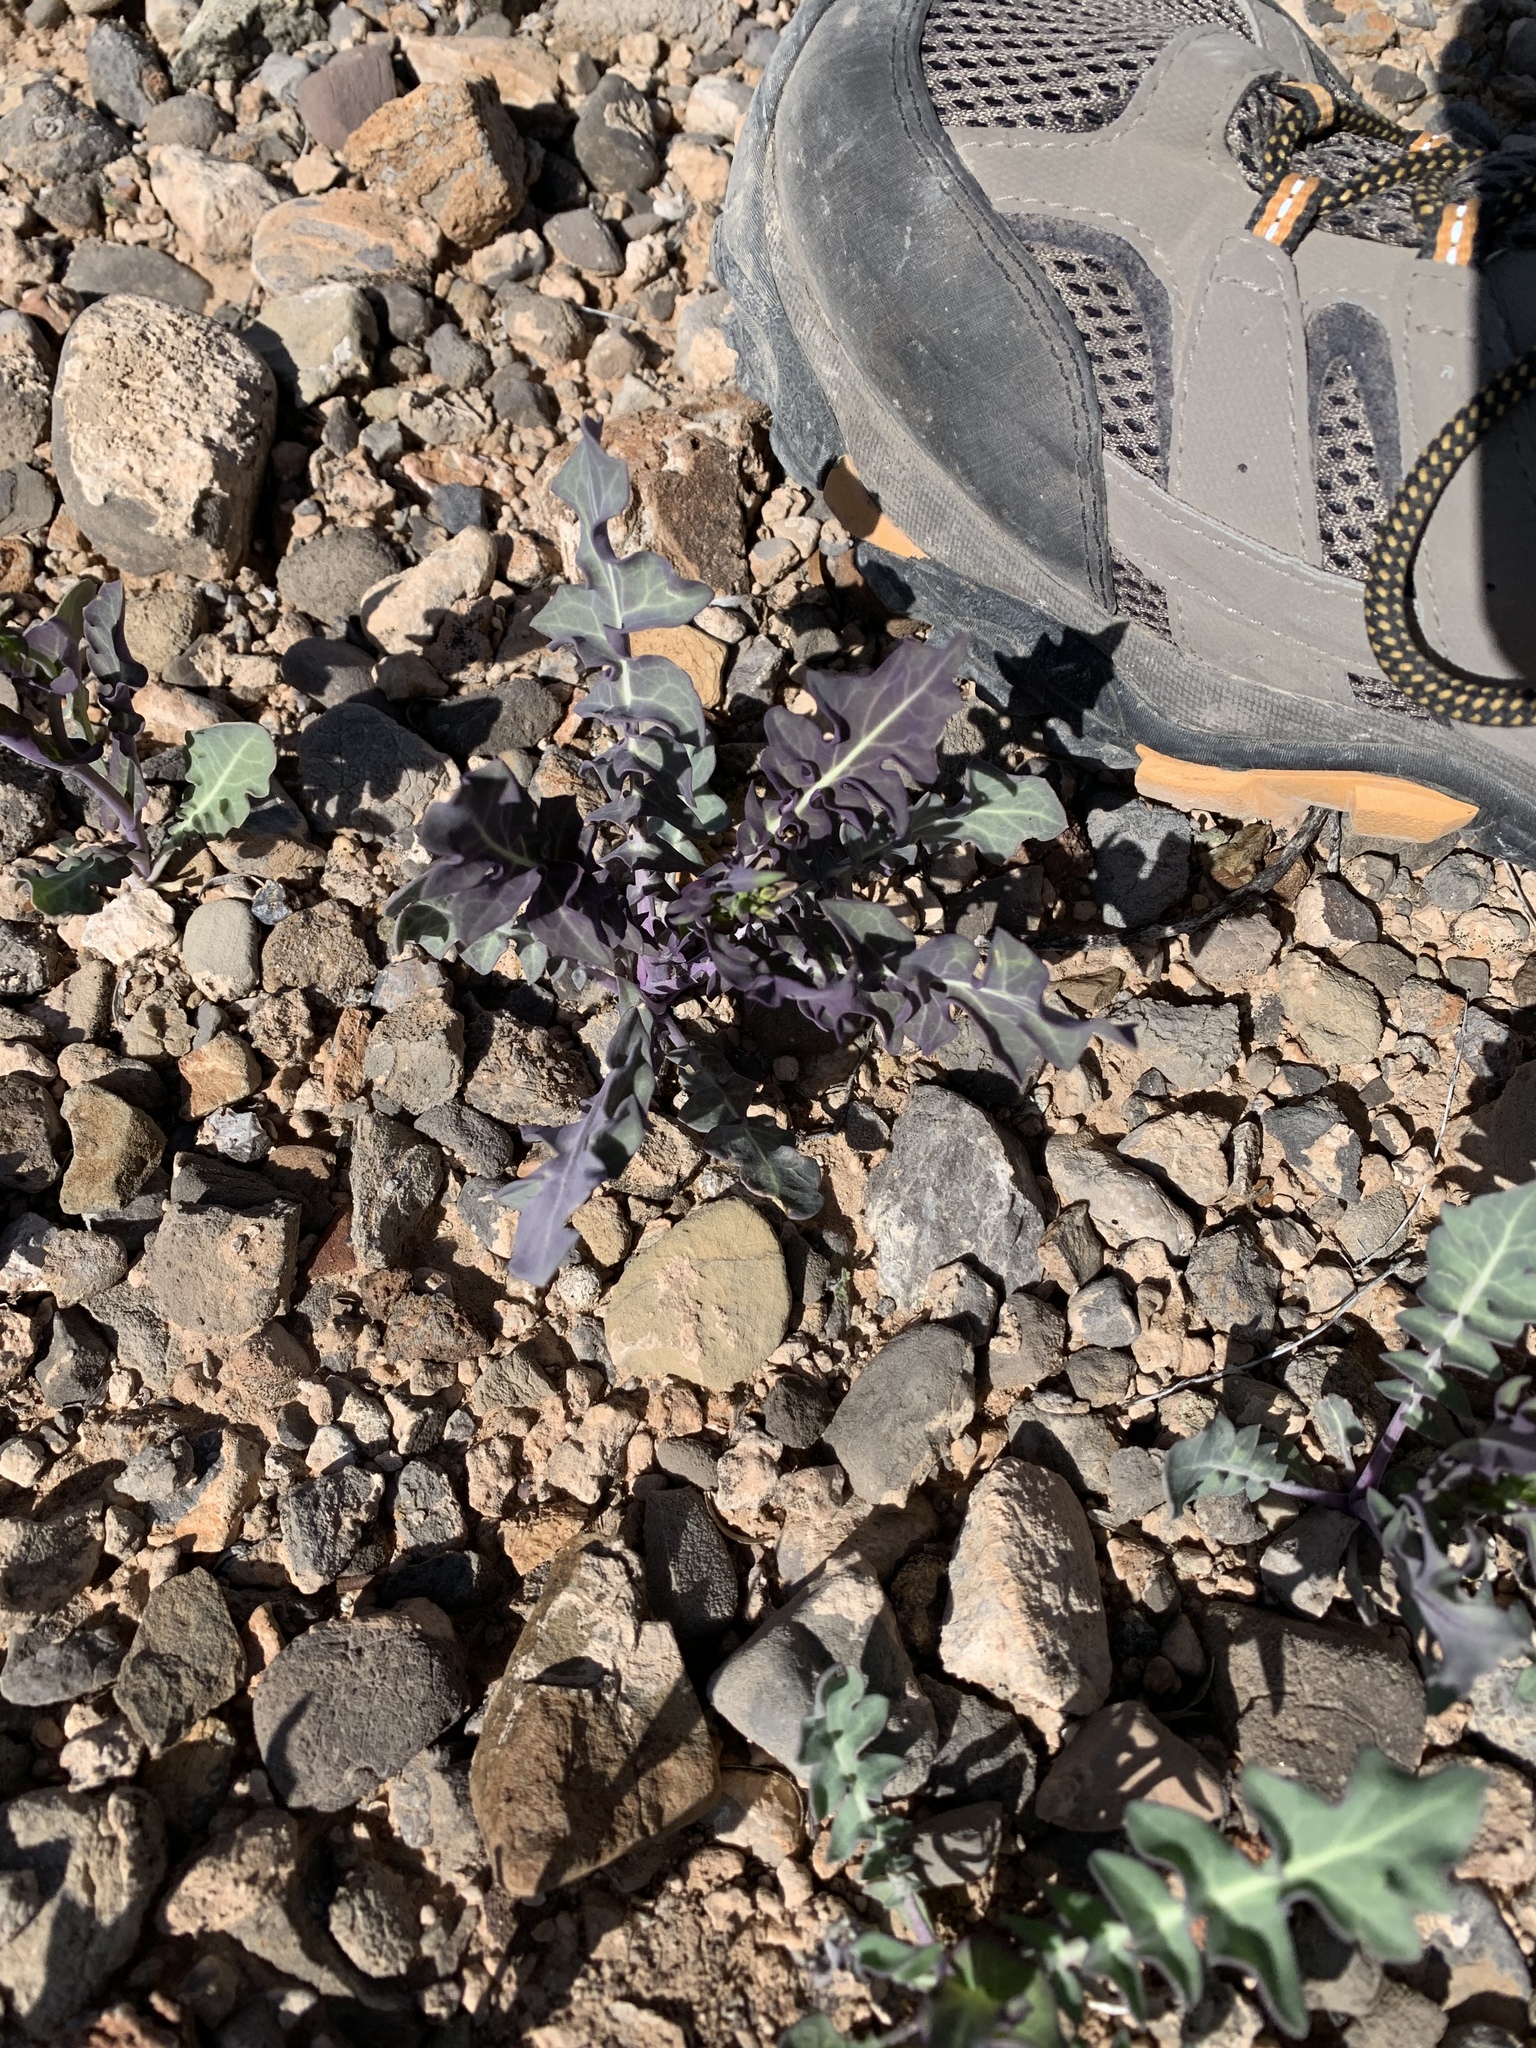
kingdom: Plantae
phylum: Tracheophyta
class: Magnoliopsida
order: Brassicales
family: Brassicaceae
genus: Streptanthus
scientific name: Streptanthus carinatus
